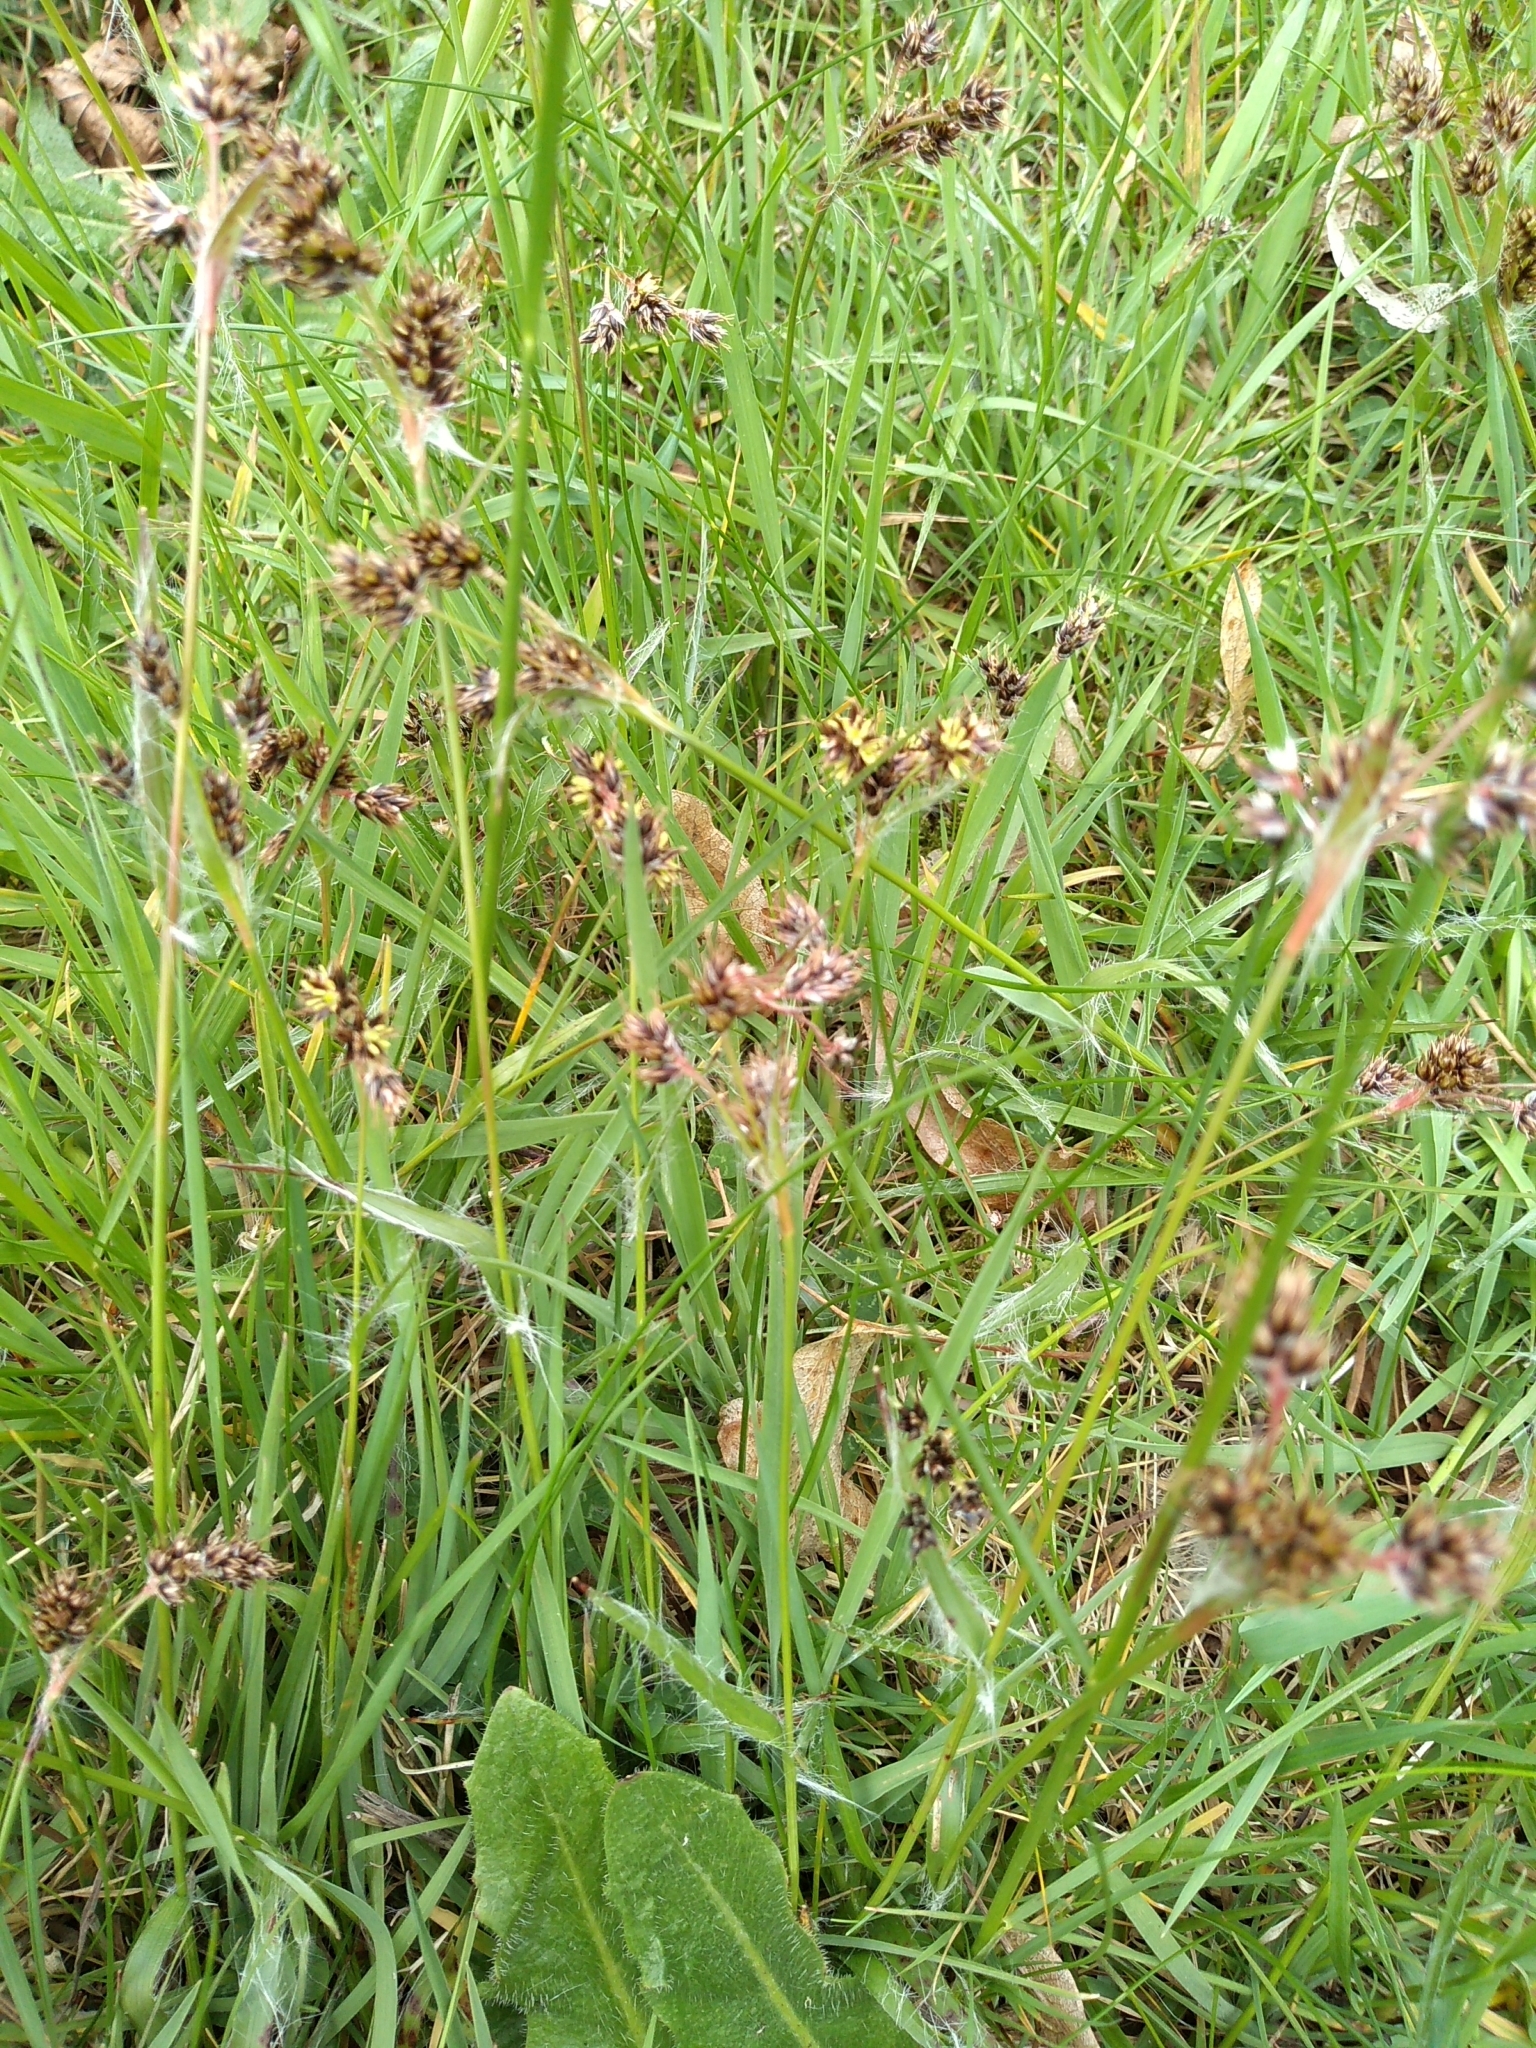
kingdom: Plantae
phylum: Tracheophyta
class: Liliopsida
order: Poales
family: Juncaceae
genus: Luzula
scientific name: Luzula campestris
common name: Field wood-rush
